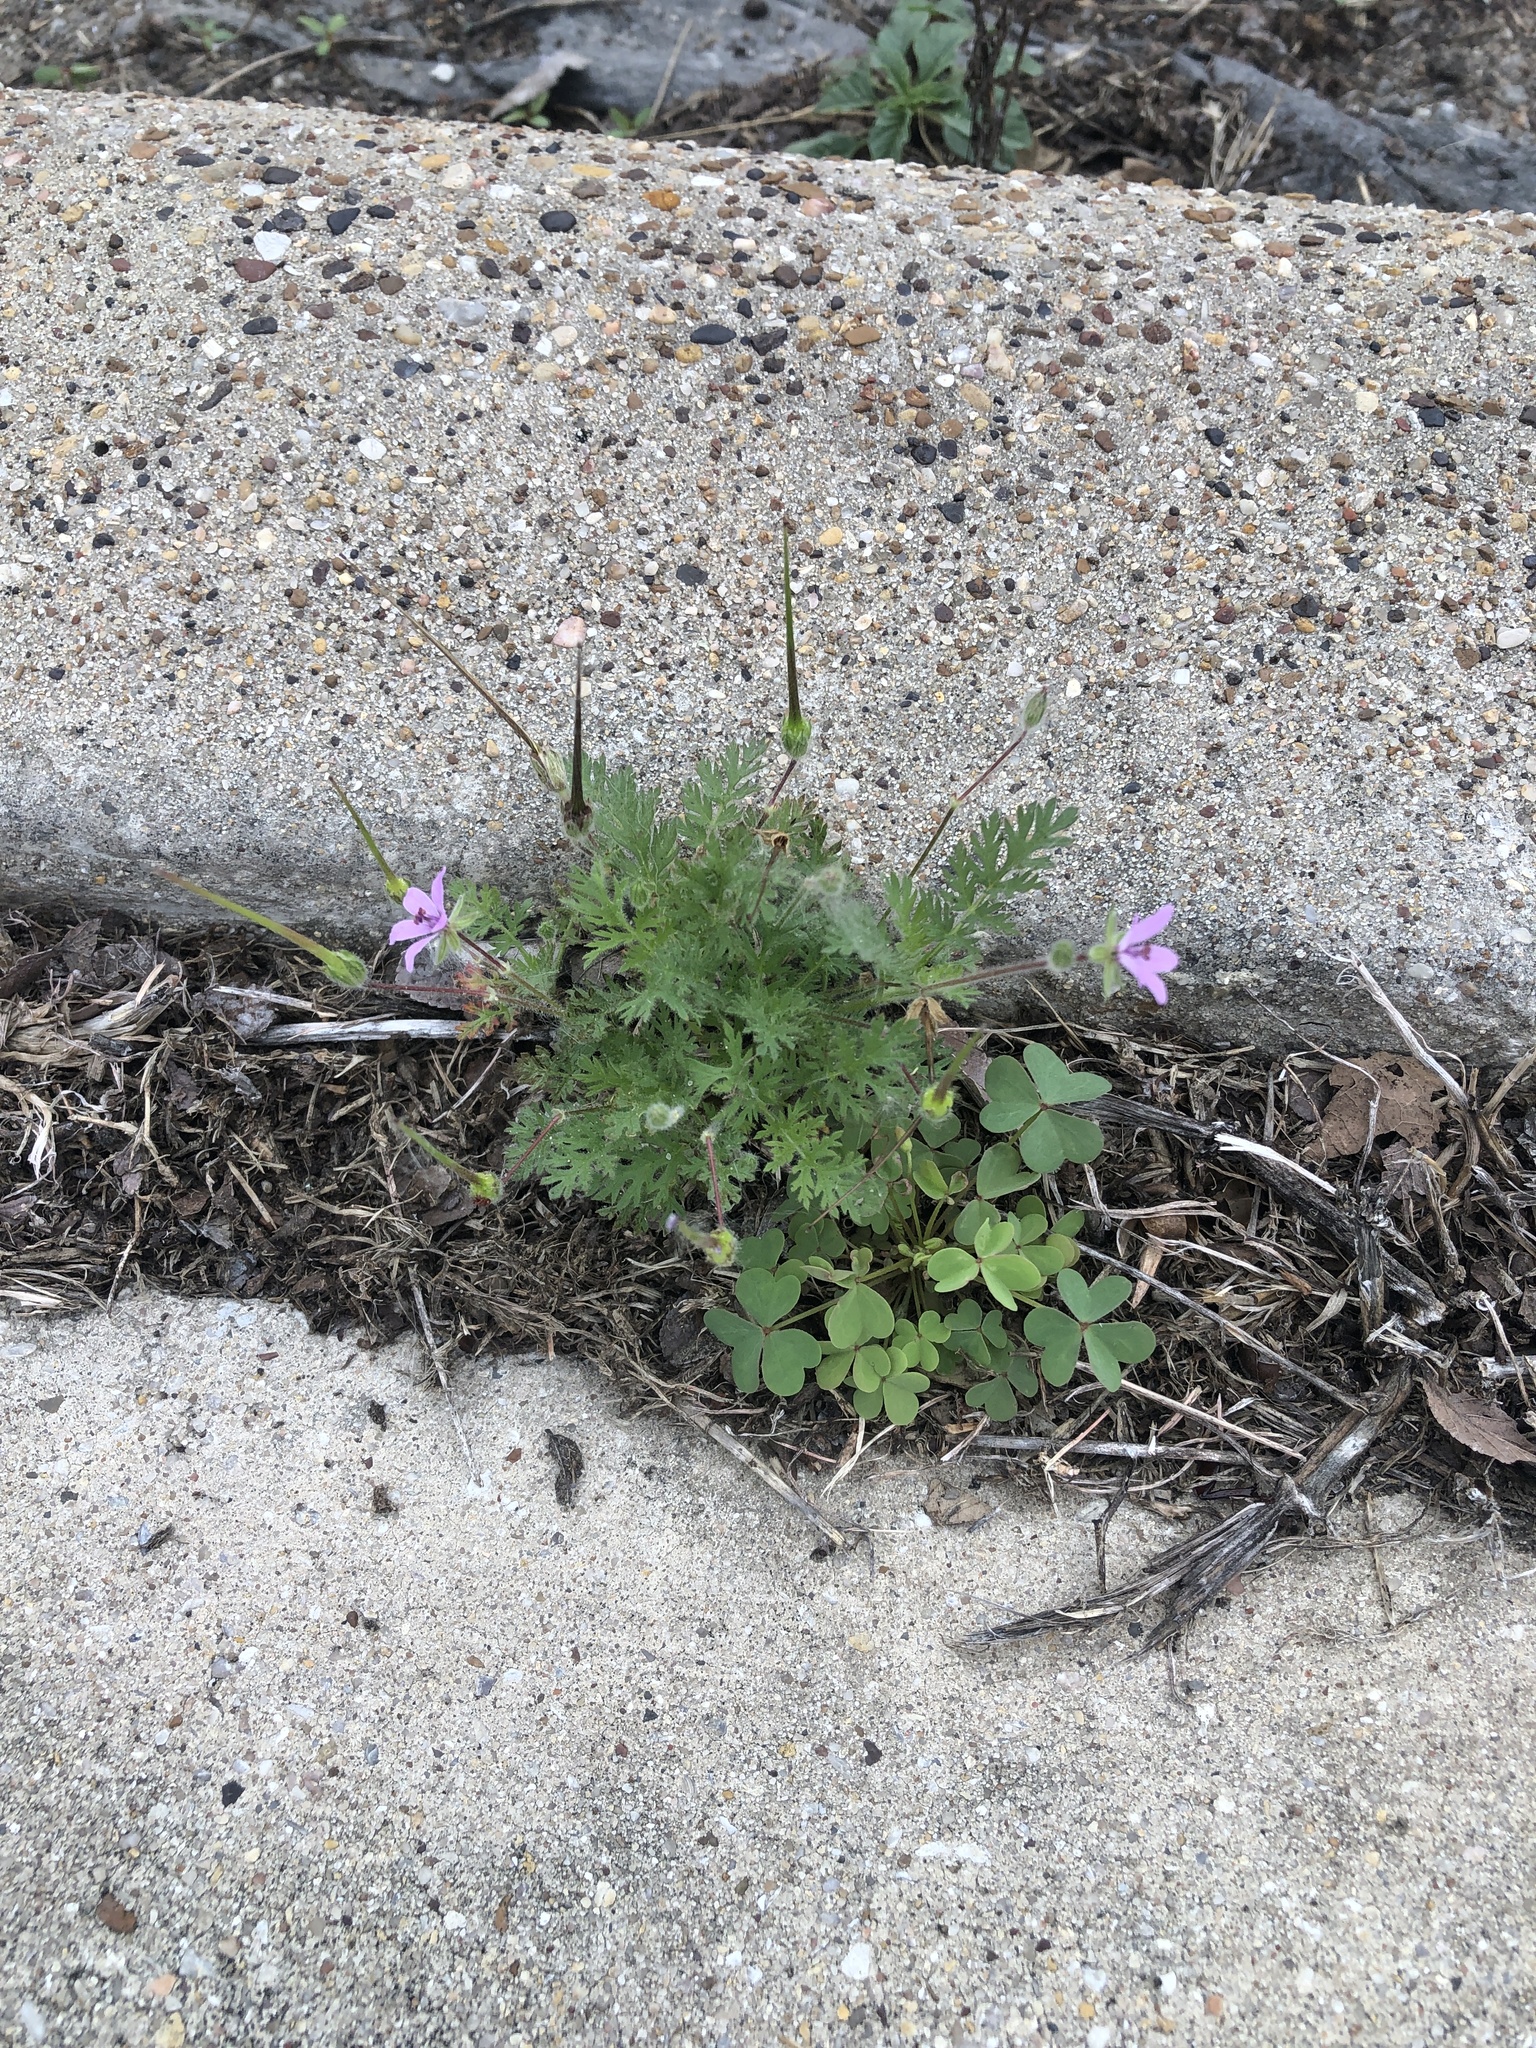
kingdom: Plantae
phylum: Tracheophyta
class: Magnoliopsida
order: Geraniales
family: Geraniaceae
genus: Erodium
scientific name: Erodium cicutarium
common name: Common stork's-bill
